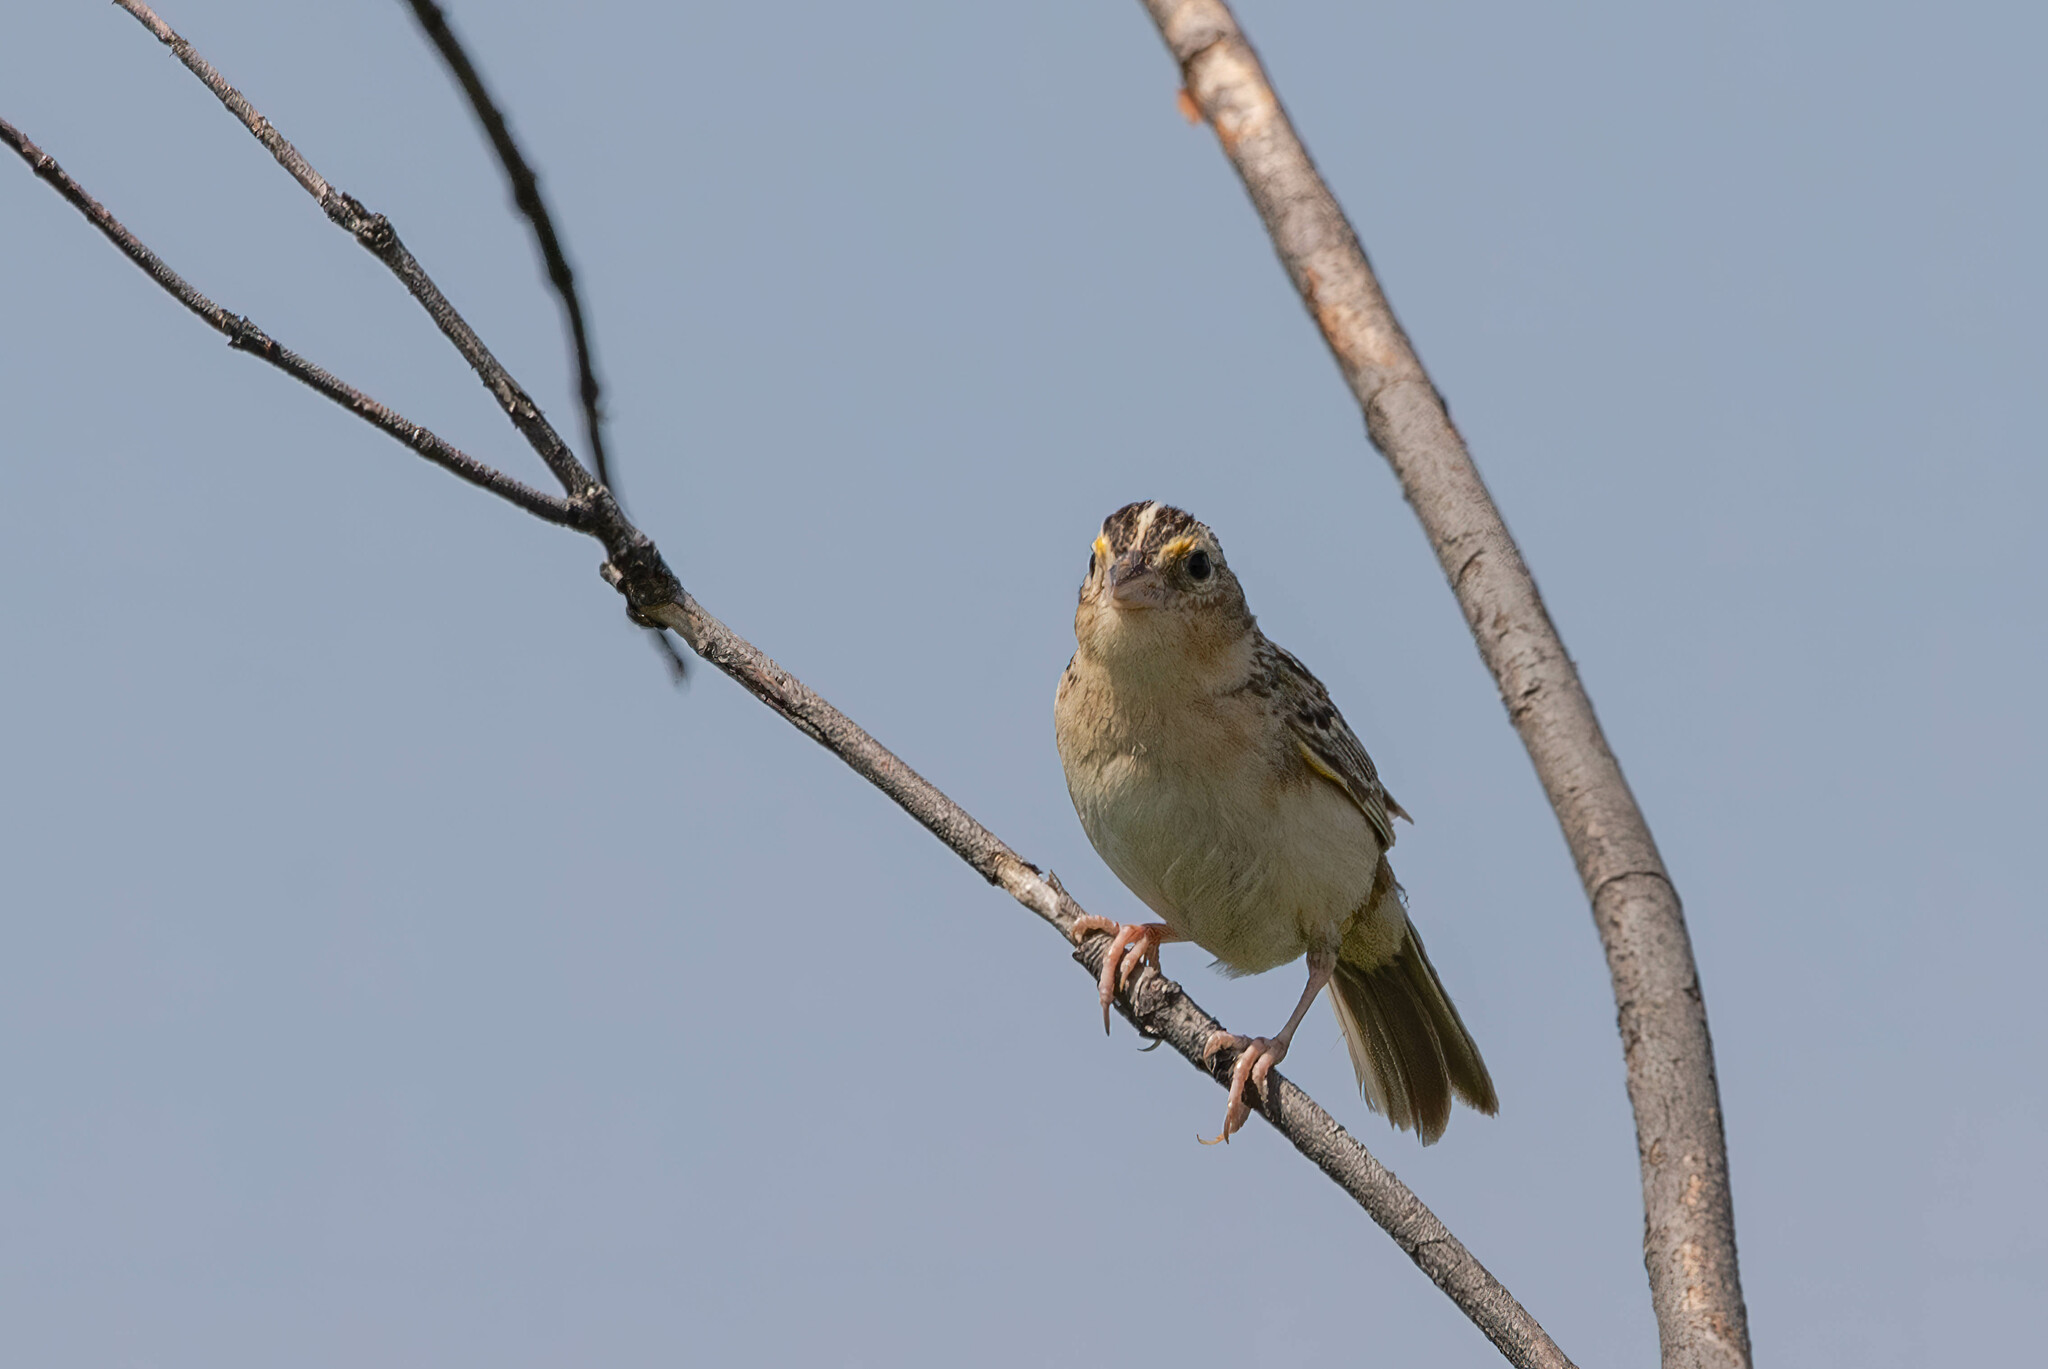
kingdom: Animalia
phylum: Chordata
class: Aves
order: Passeriformes
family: Passerellidae
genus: Ammodramus
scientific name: Ammodramus savannarum
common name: Grasshopper sparrow
